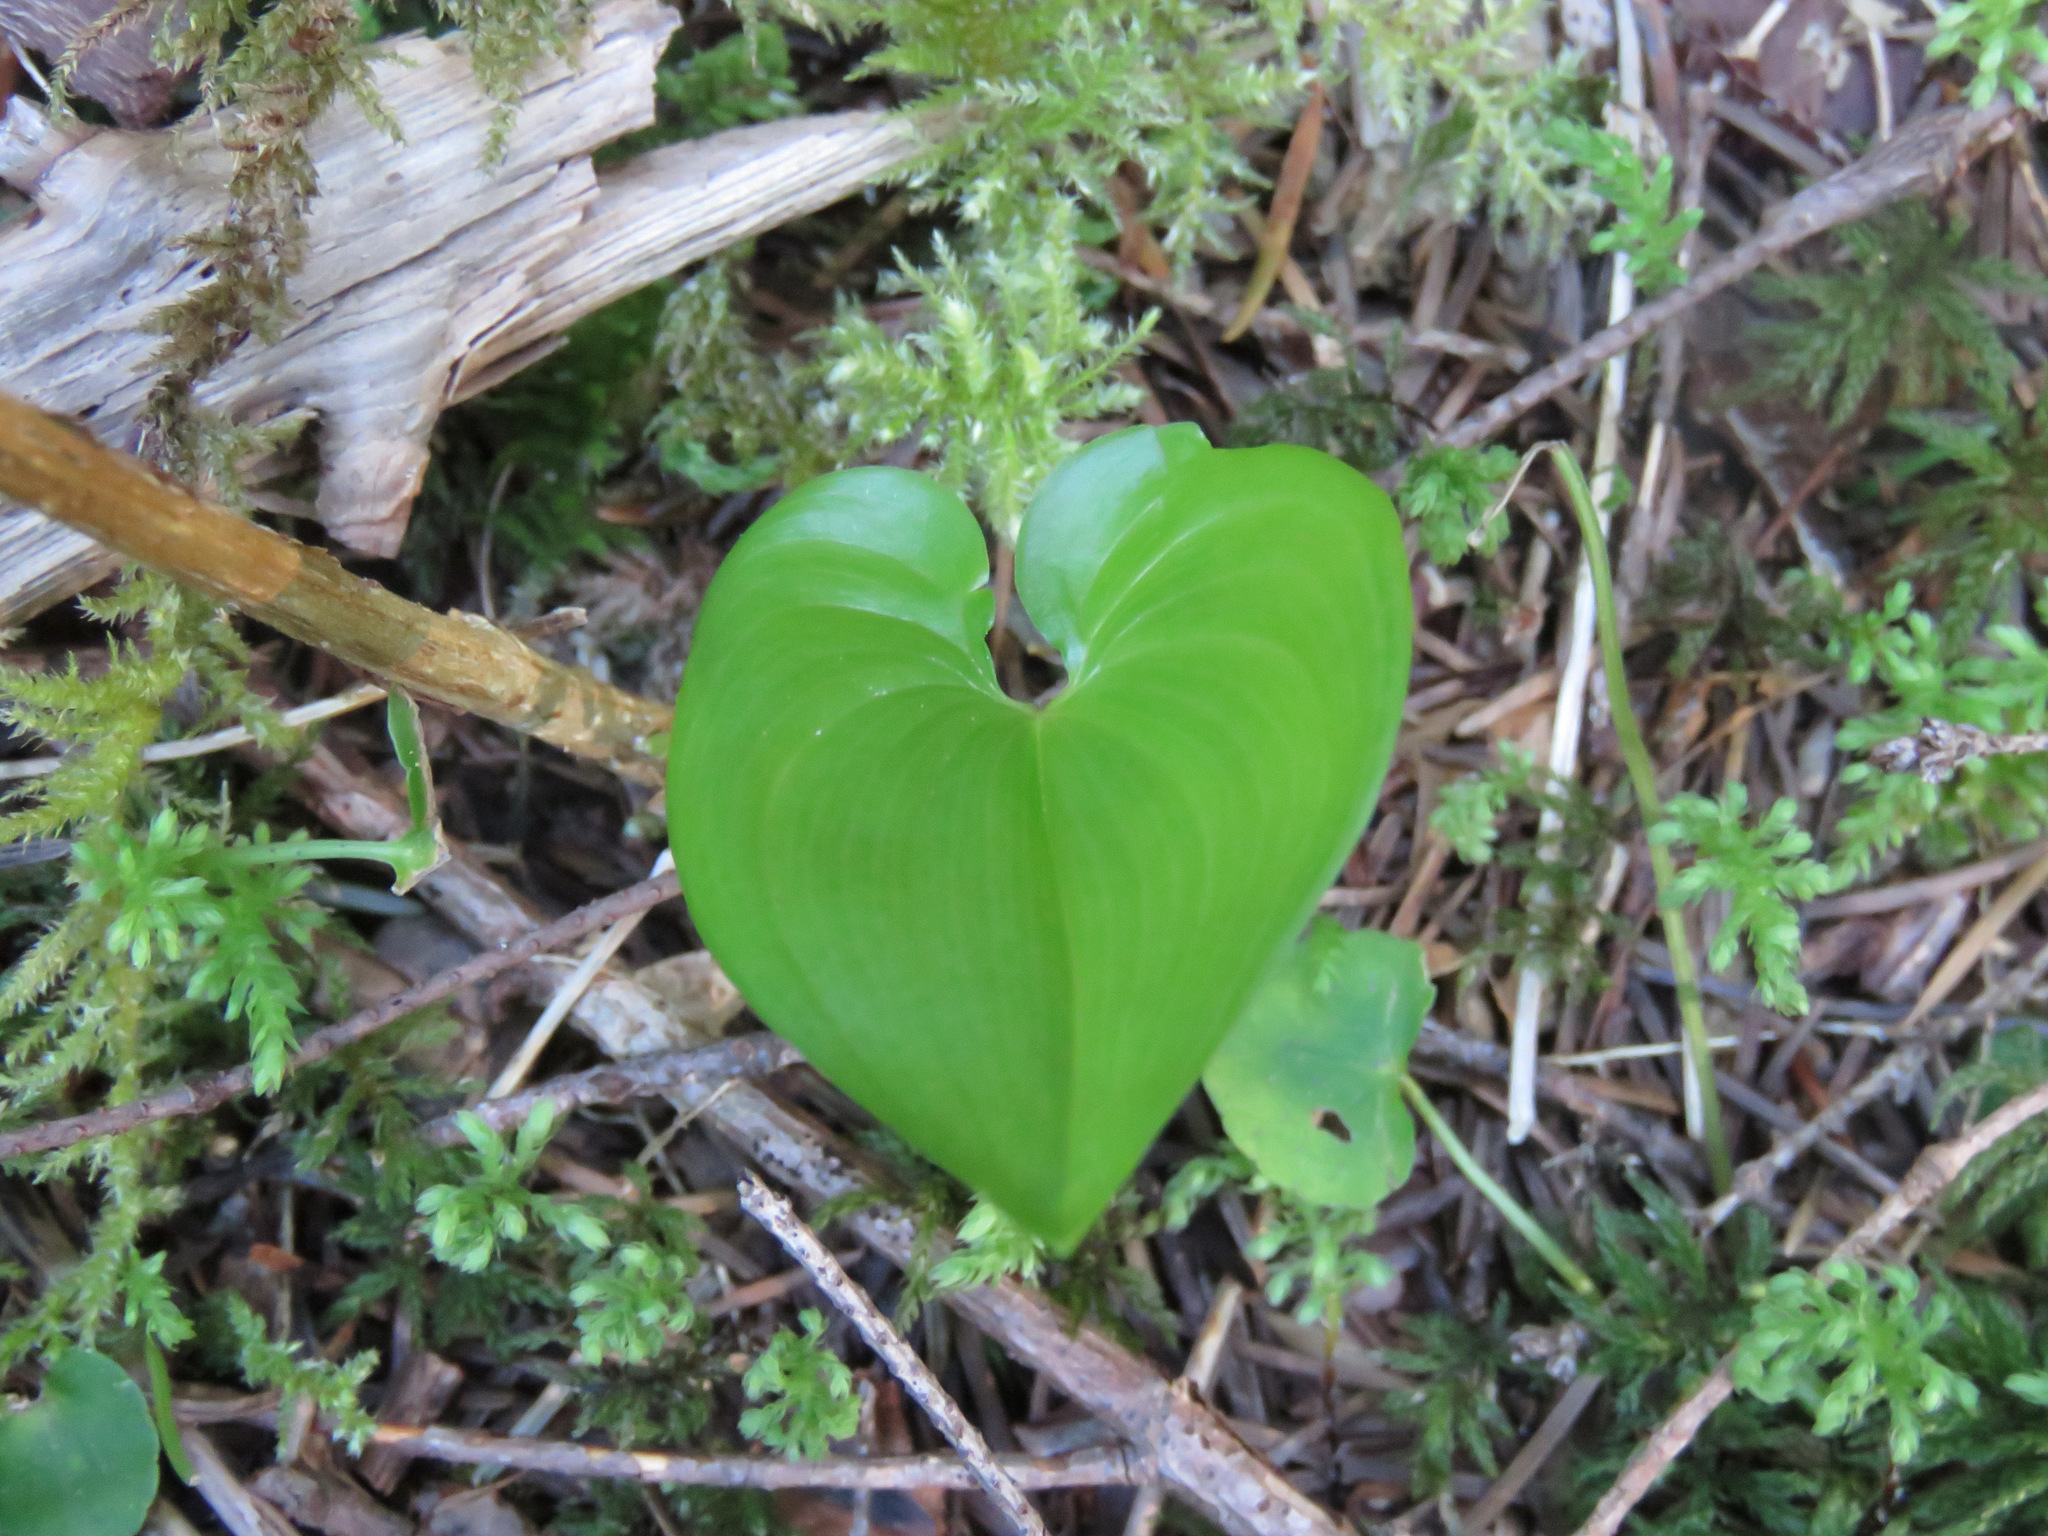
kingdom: Plantae
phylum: Tracheophyta
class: Liliopsida
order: Asparagales
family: Asparagaceae
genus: Maianthemum
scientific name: Maianthemum dilatatum
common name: False lily-of-the-valley
